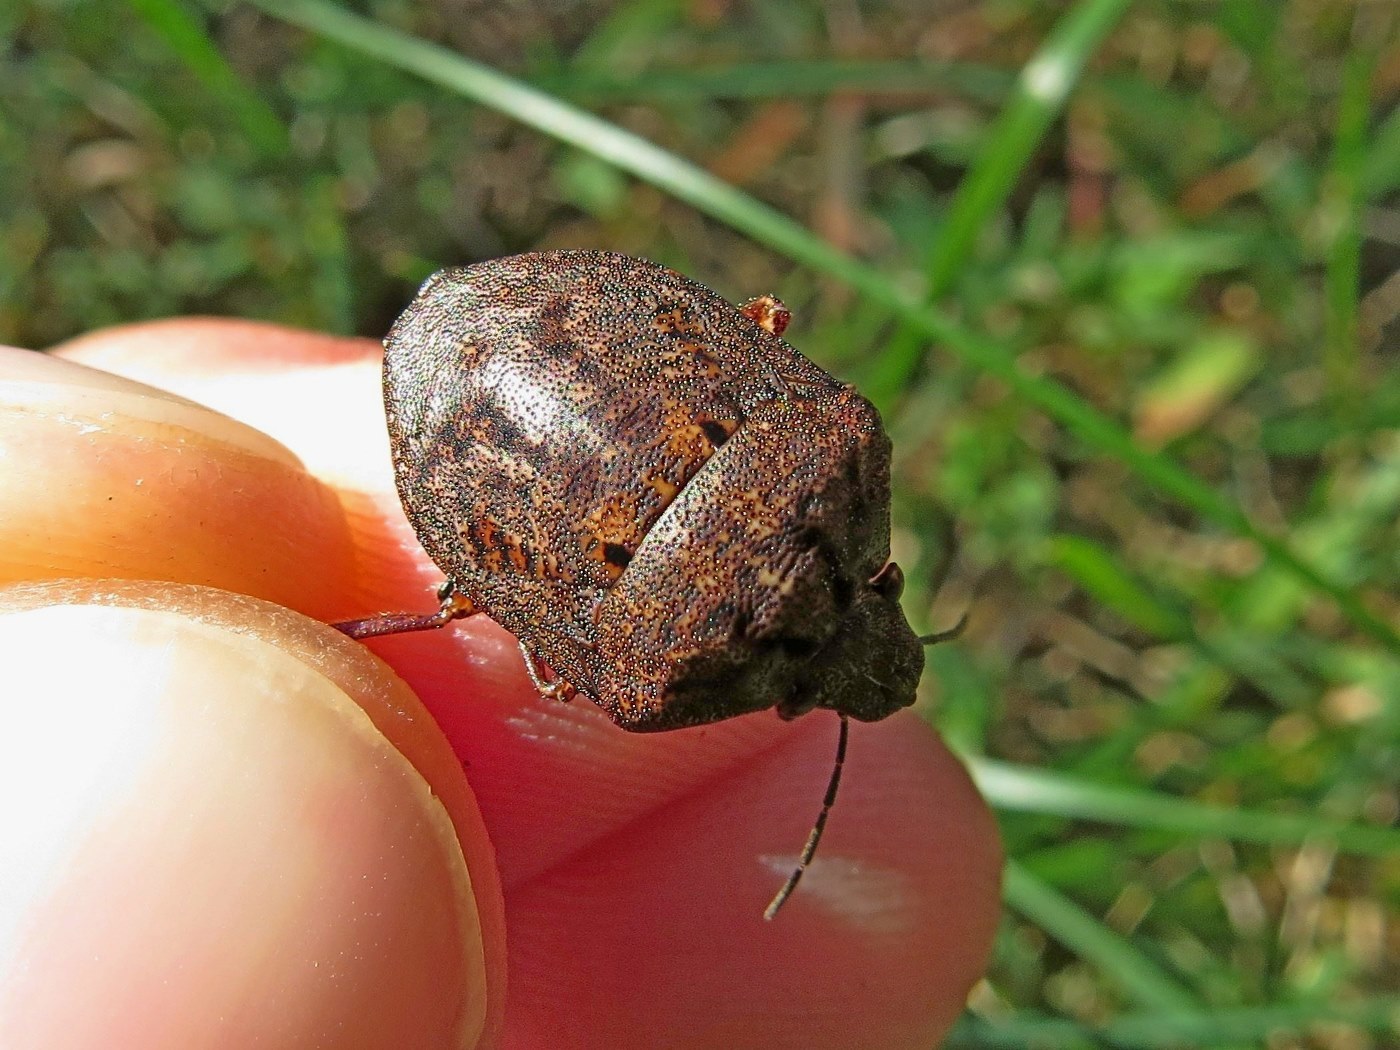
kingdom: Animalia
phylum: Arthropoda
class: Insecta
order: Hemiptera
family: Scutelleridae
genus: Tetyra
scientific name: Tetyra bipunctata
